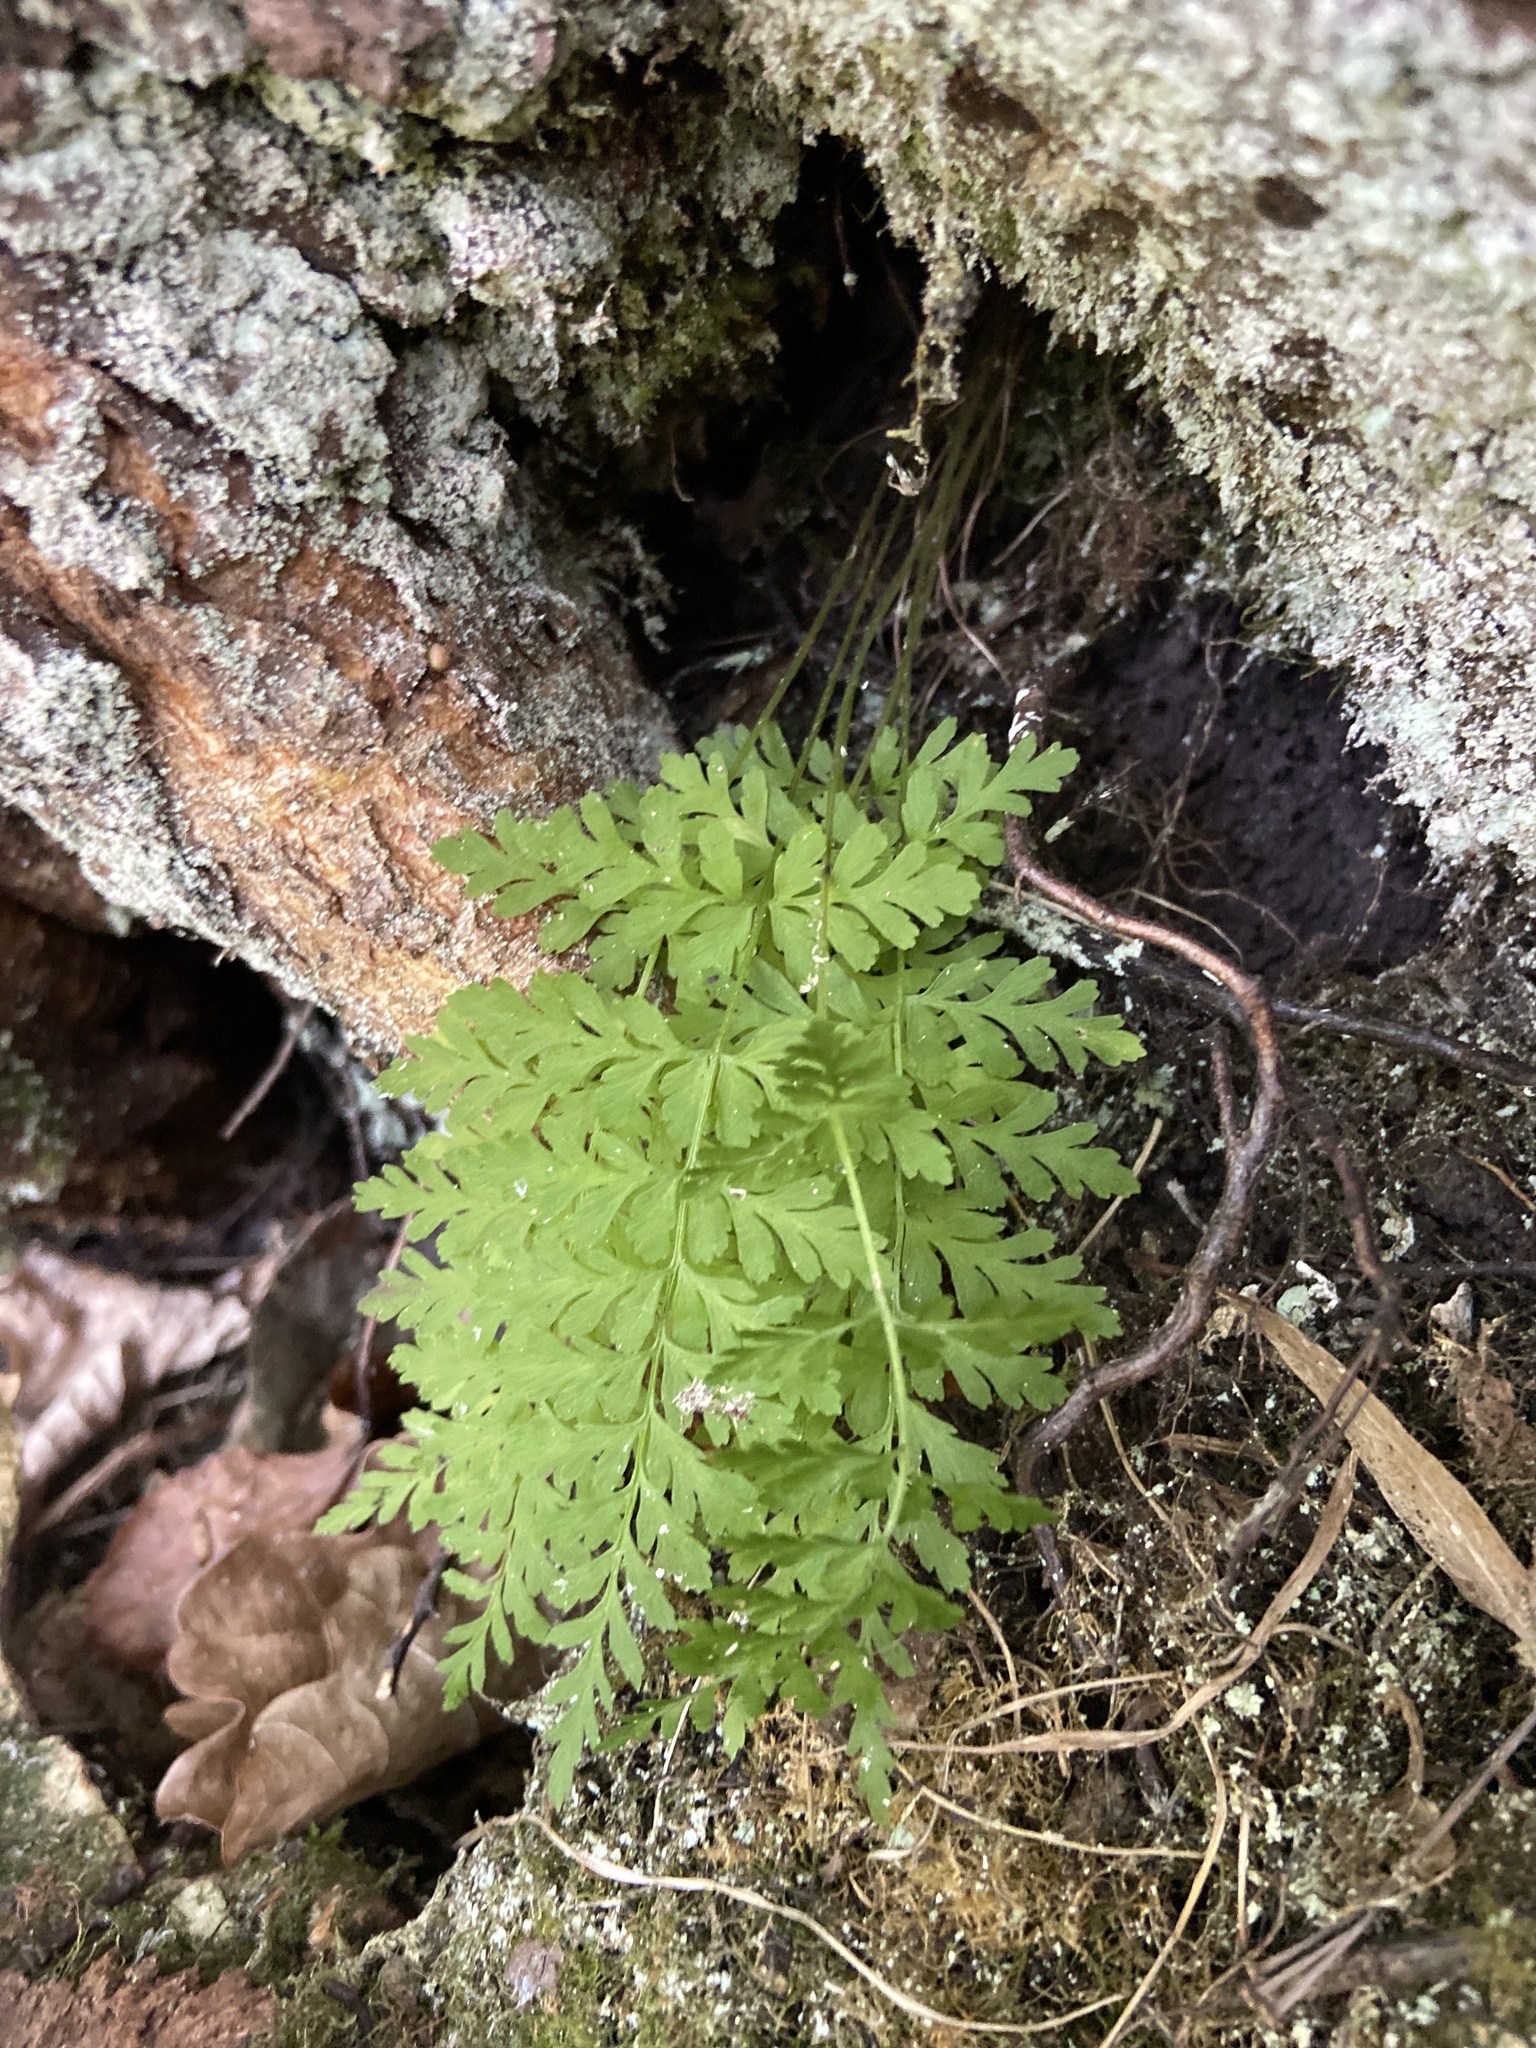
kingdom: Plantae
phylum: Tracheophyta
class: Polypodiopsida
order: Polypodiales
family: Cystopteridaceae
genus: Cystopteris
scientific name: Cystopteris fragilis
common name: Brittle bladder fern
